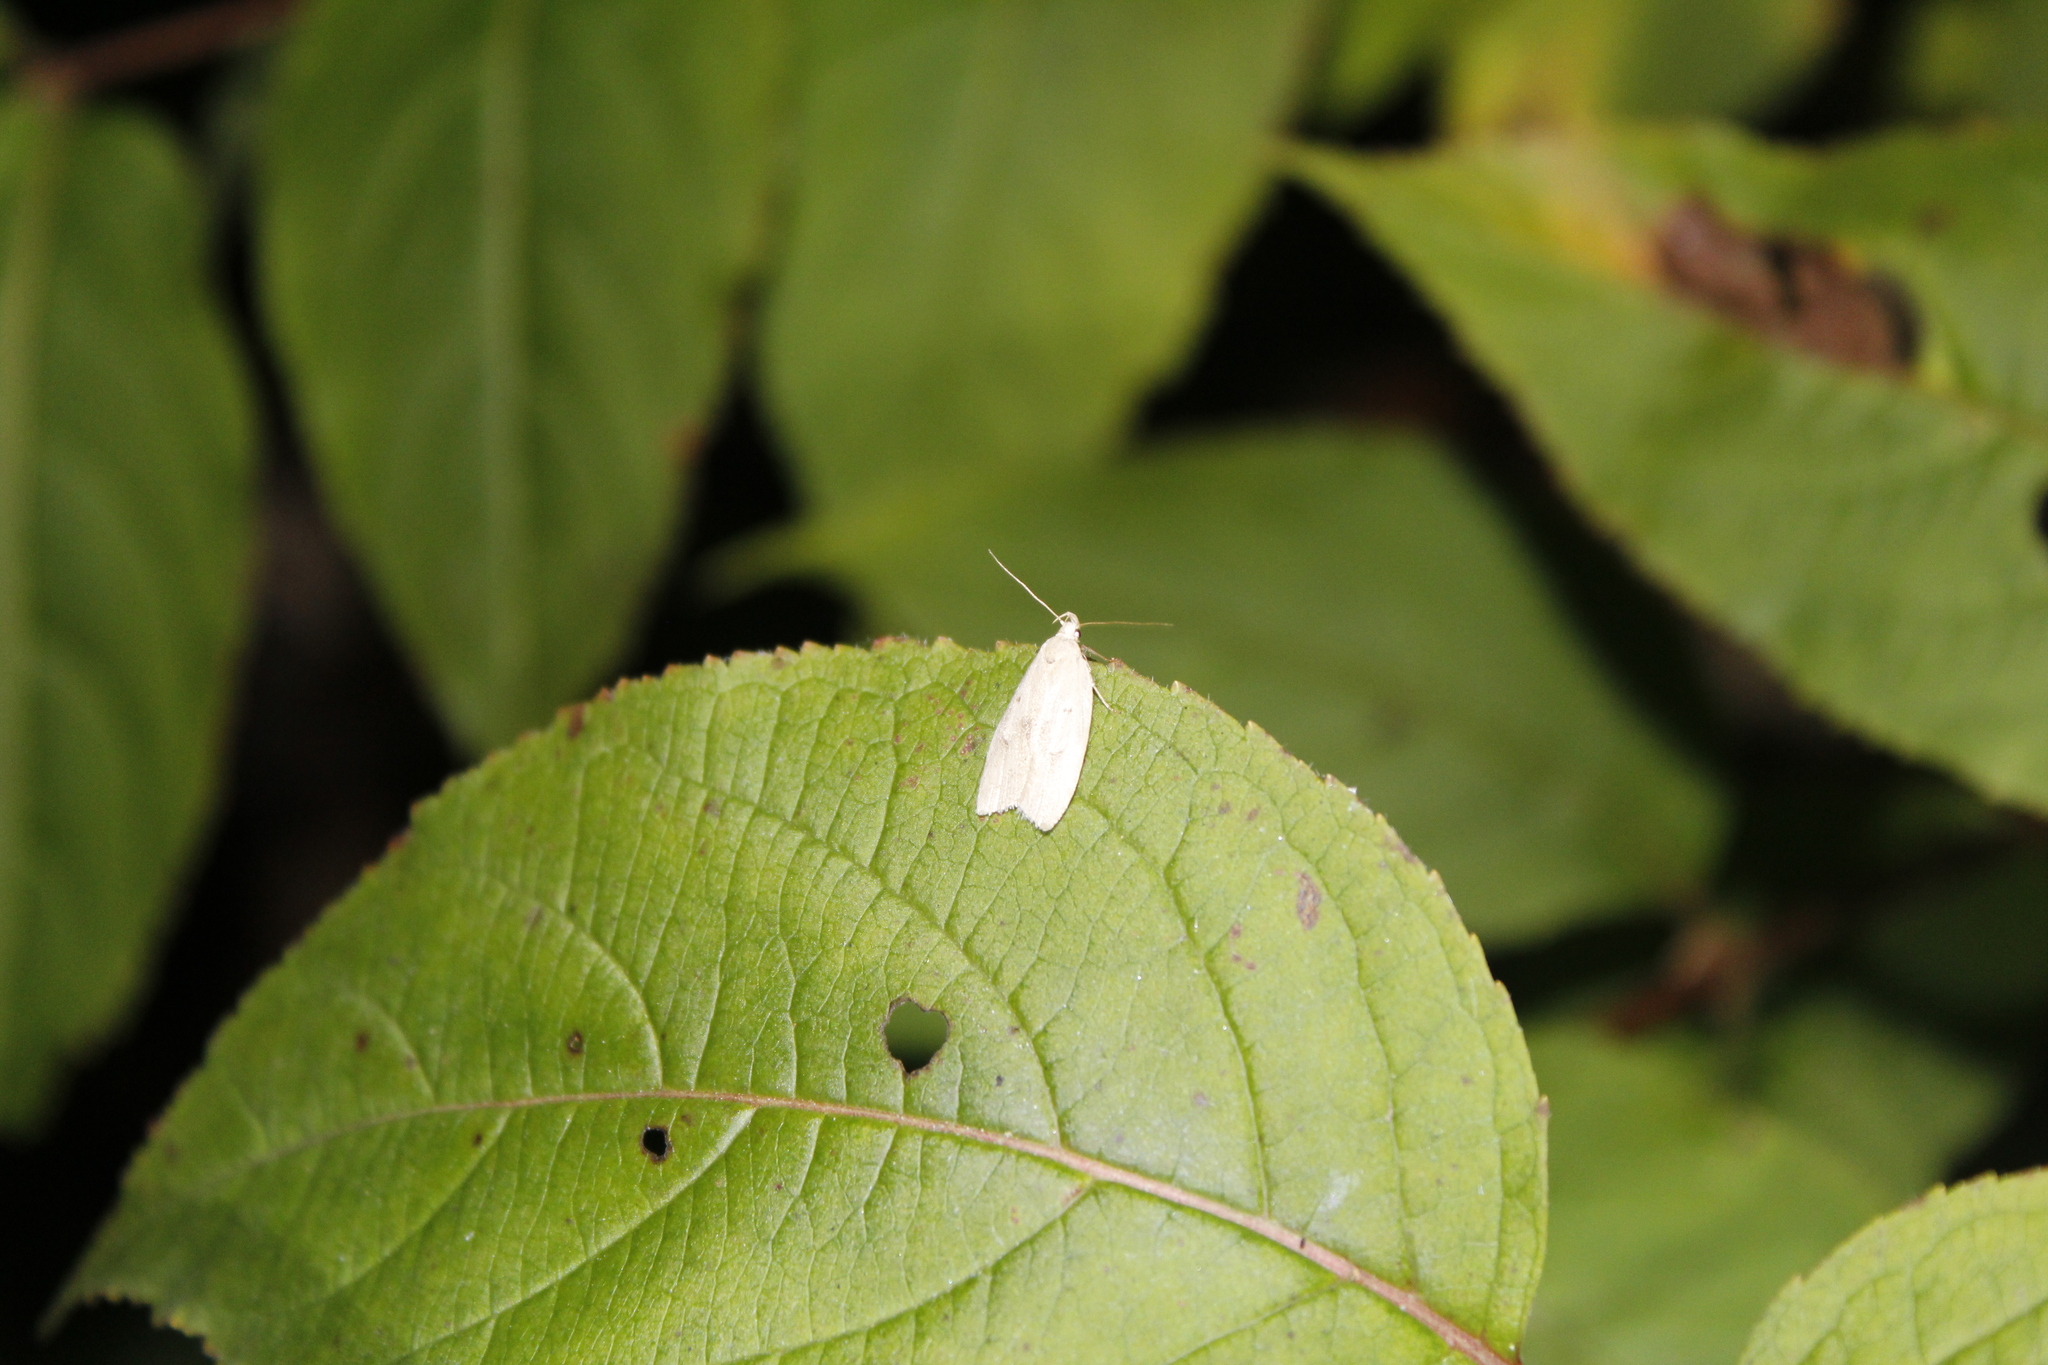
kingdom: Animalia
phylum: Arthropoda
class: Insecta
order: Lepidoptera
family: Peleopodidae
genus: Machimia
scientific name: Machimia tentoriferella
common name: Gold-striped leaftier moth
